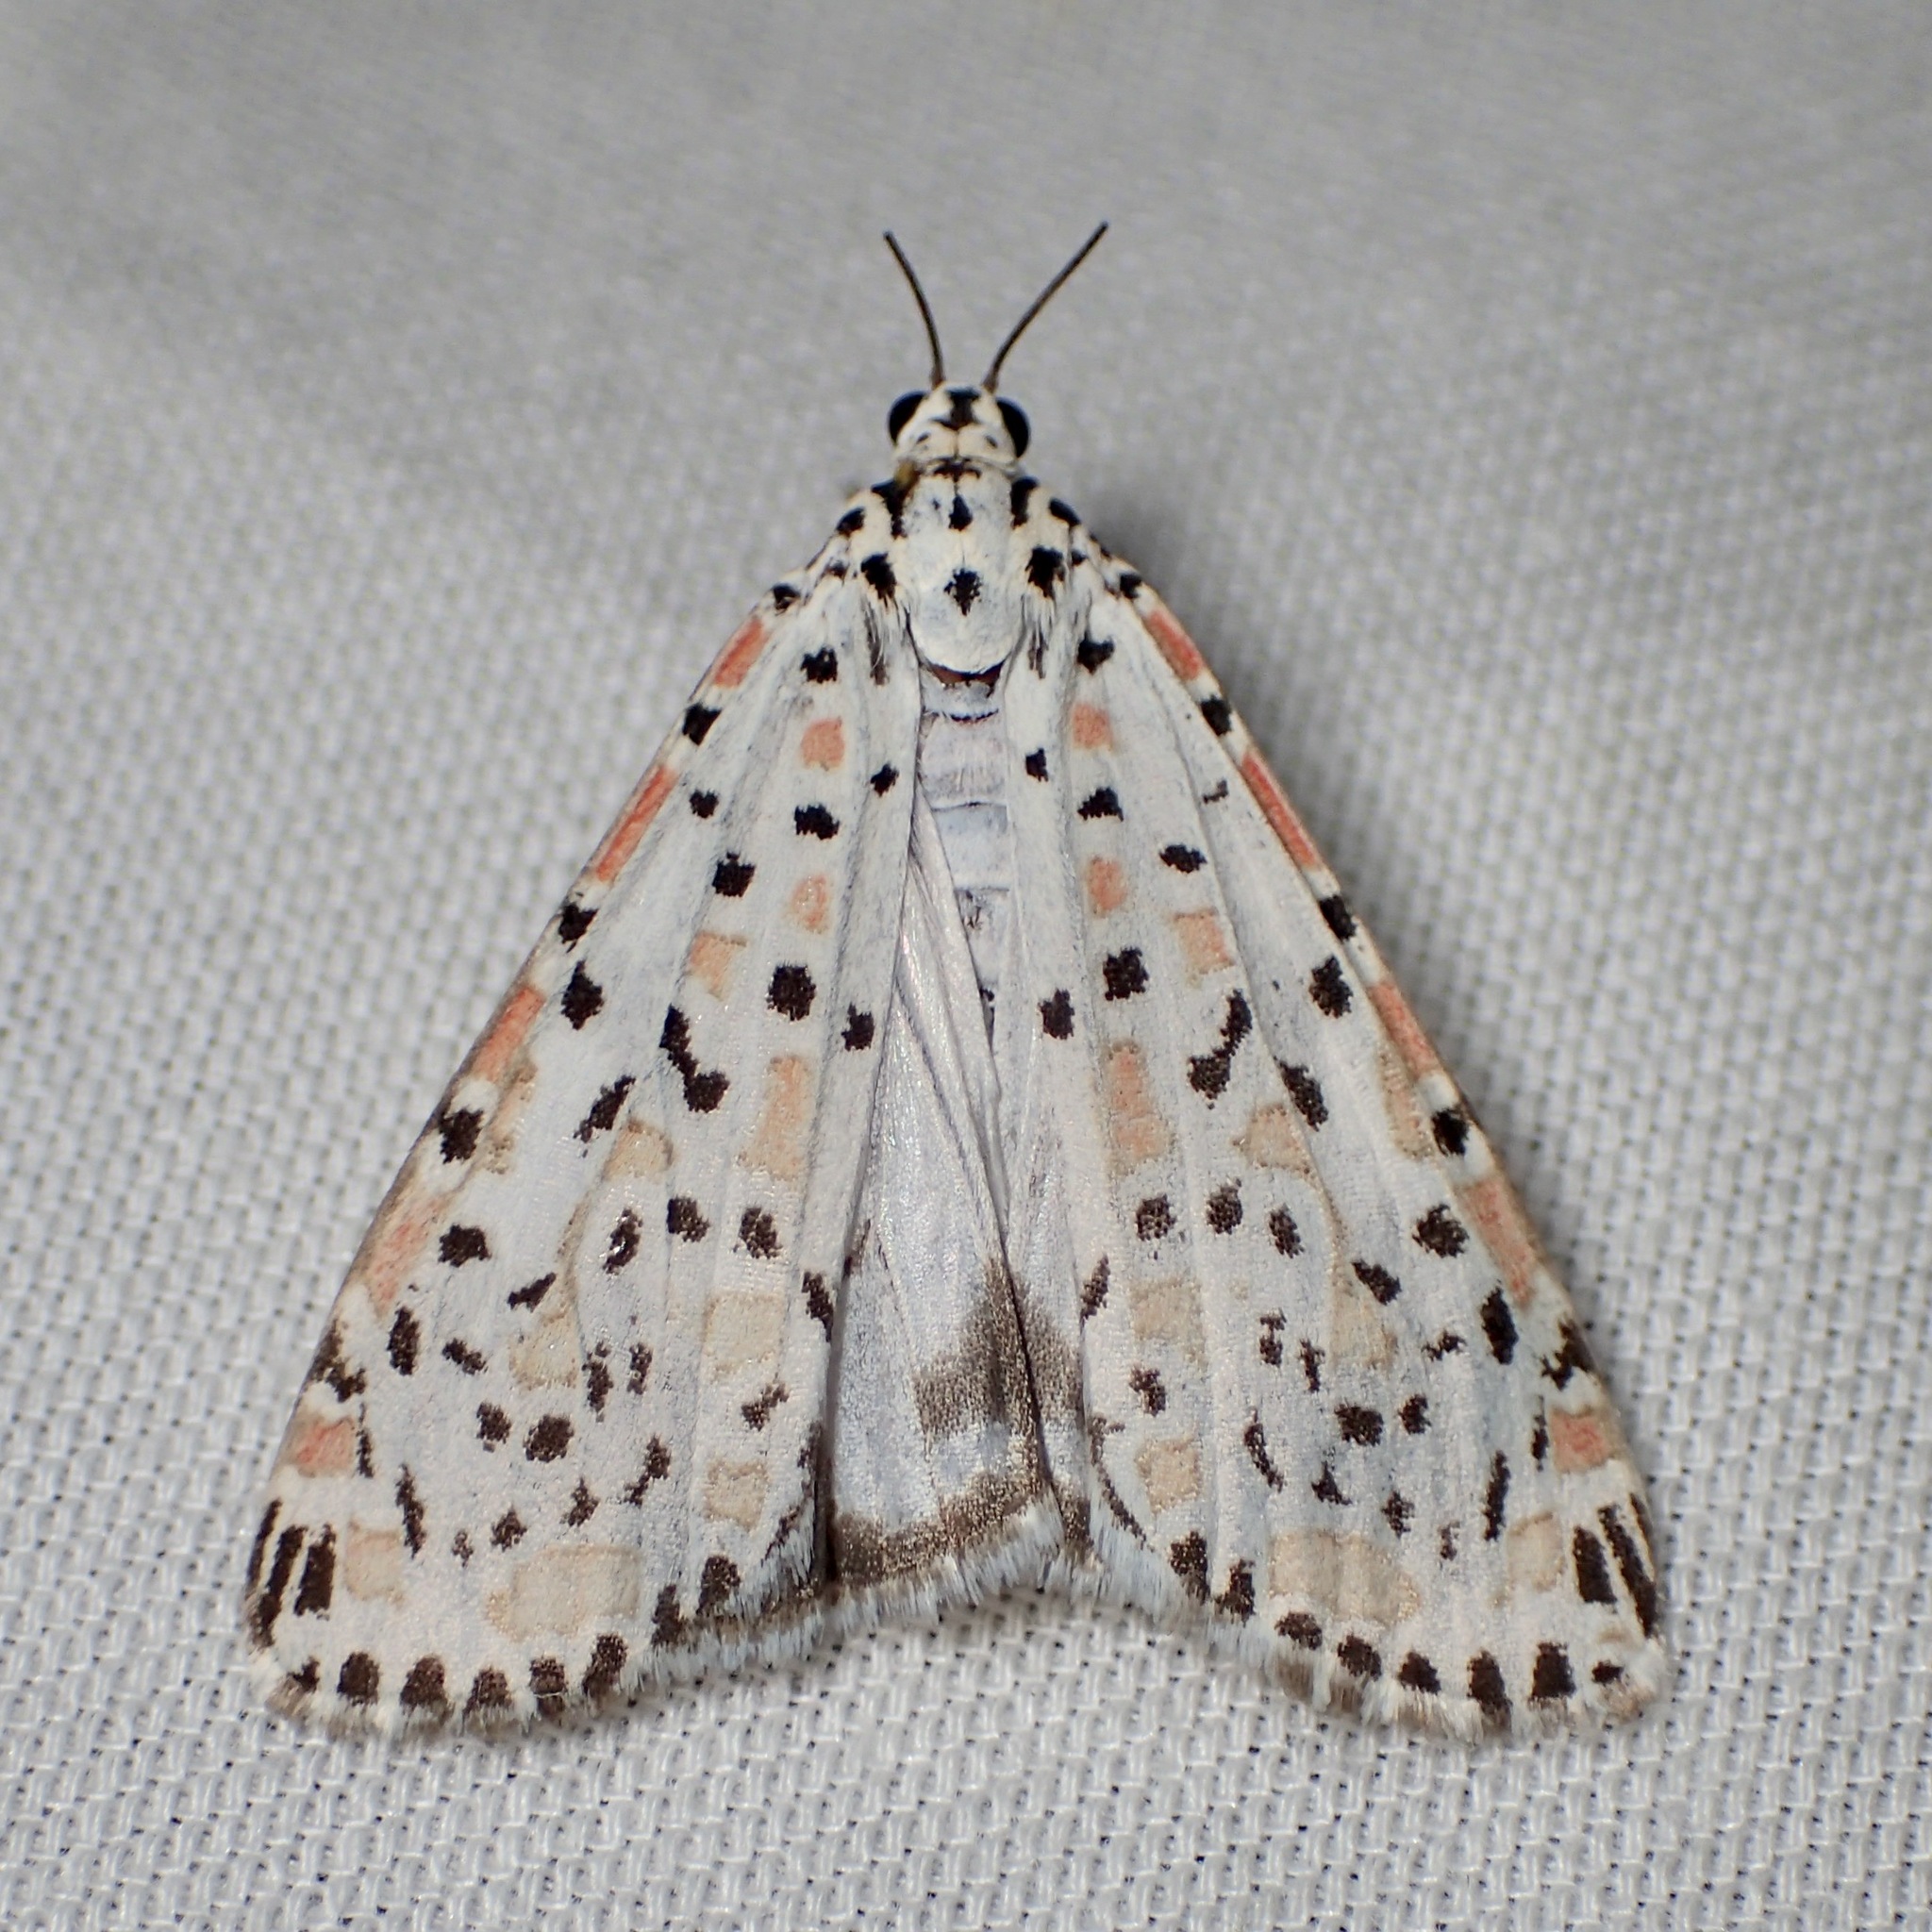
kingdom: Animalia
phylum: Arthropoda
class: Insecta
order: Lepidoptera
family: Erebidae
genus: Utetheisa
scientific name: Utetheisa pulchelloides
